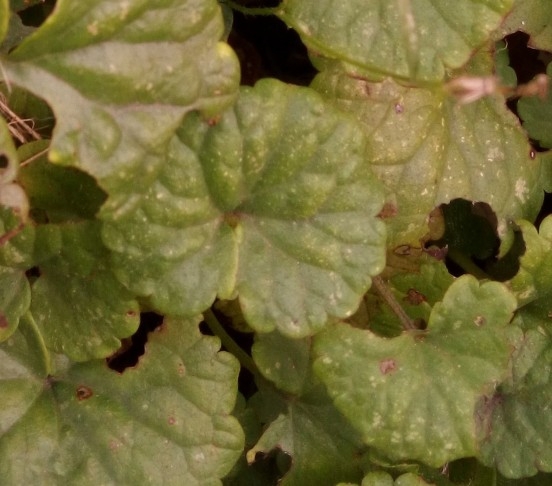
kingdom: Plantae
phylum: Tracheophyta
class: Magnoliopsida
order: Lamiales
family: Lamiaceae
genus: Glechoma
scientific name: Glechoma hederacea
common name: Ground ivy
